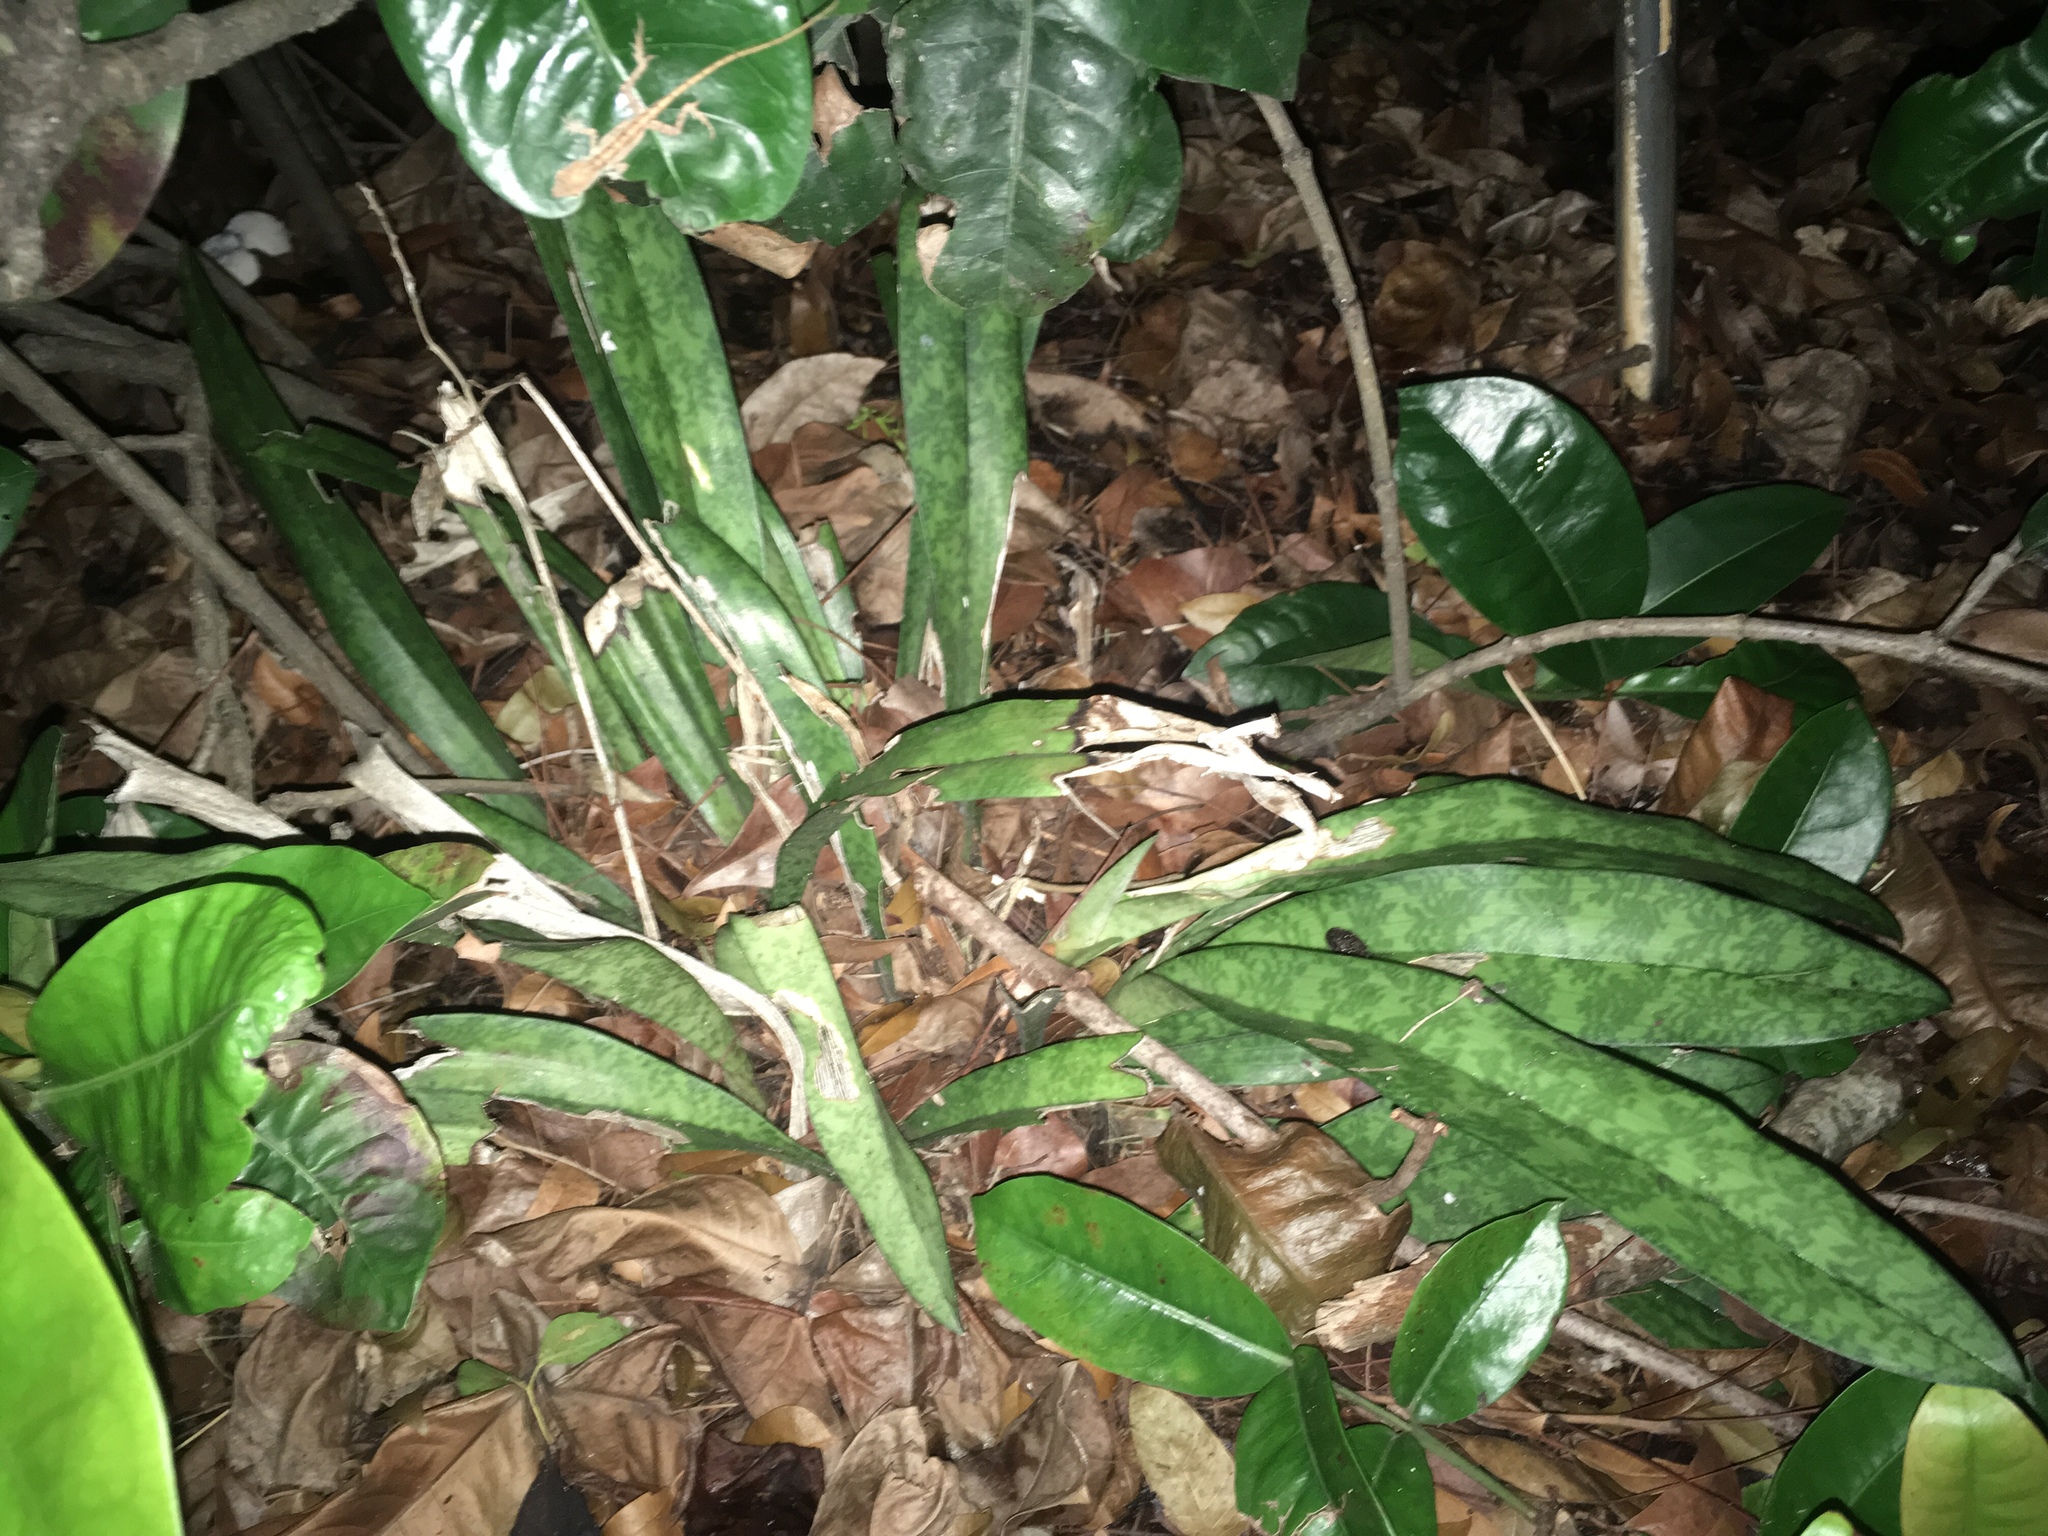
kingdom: Plantae
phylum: Tracheophyta
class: Liliopsida
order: Asparagales
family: Orchidaceae
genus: Eulophia
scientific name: Eulophia maculata
